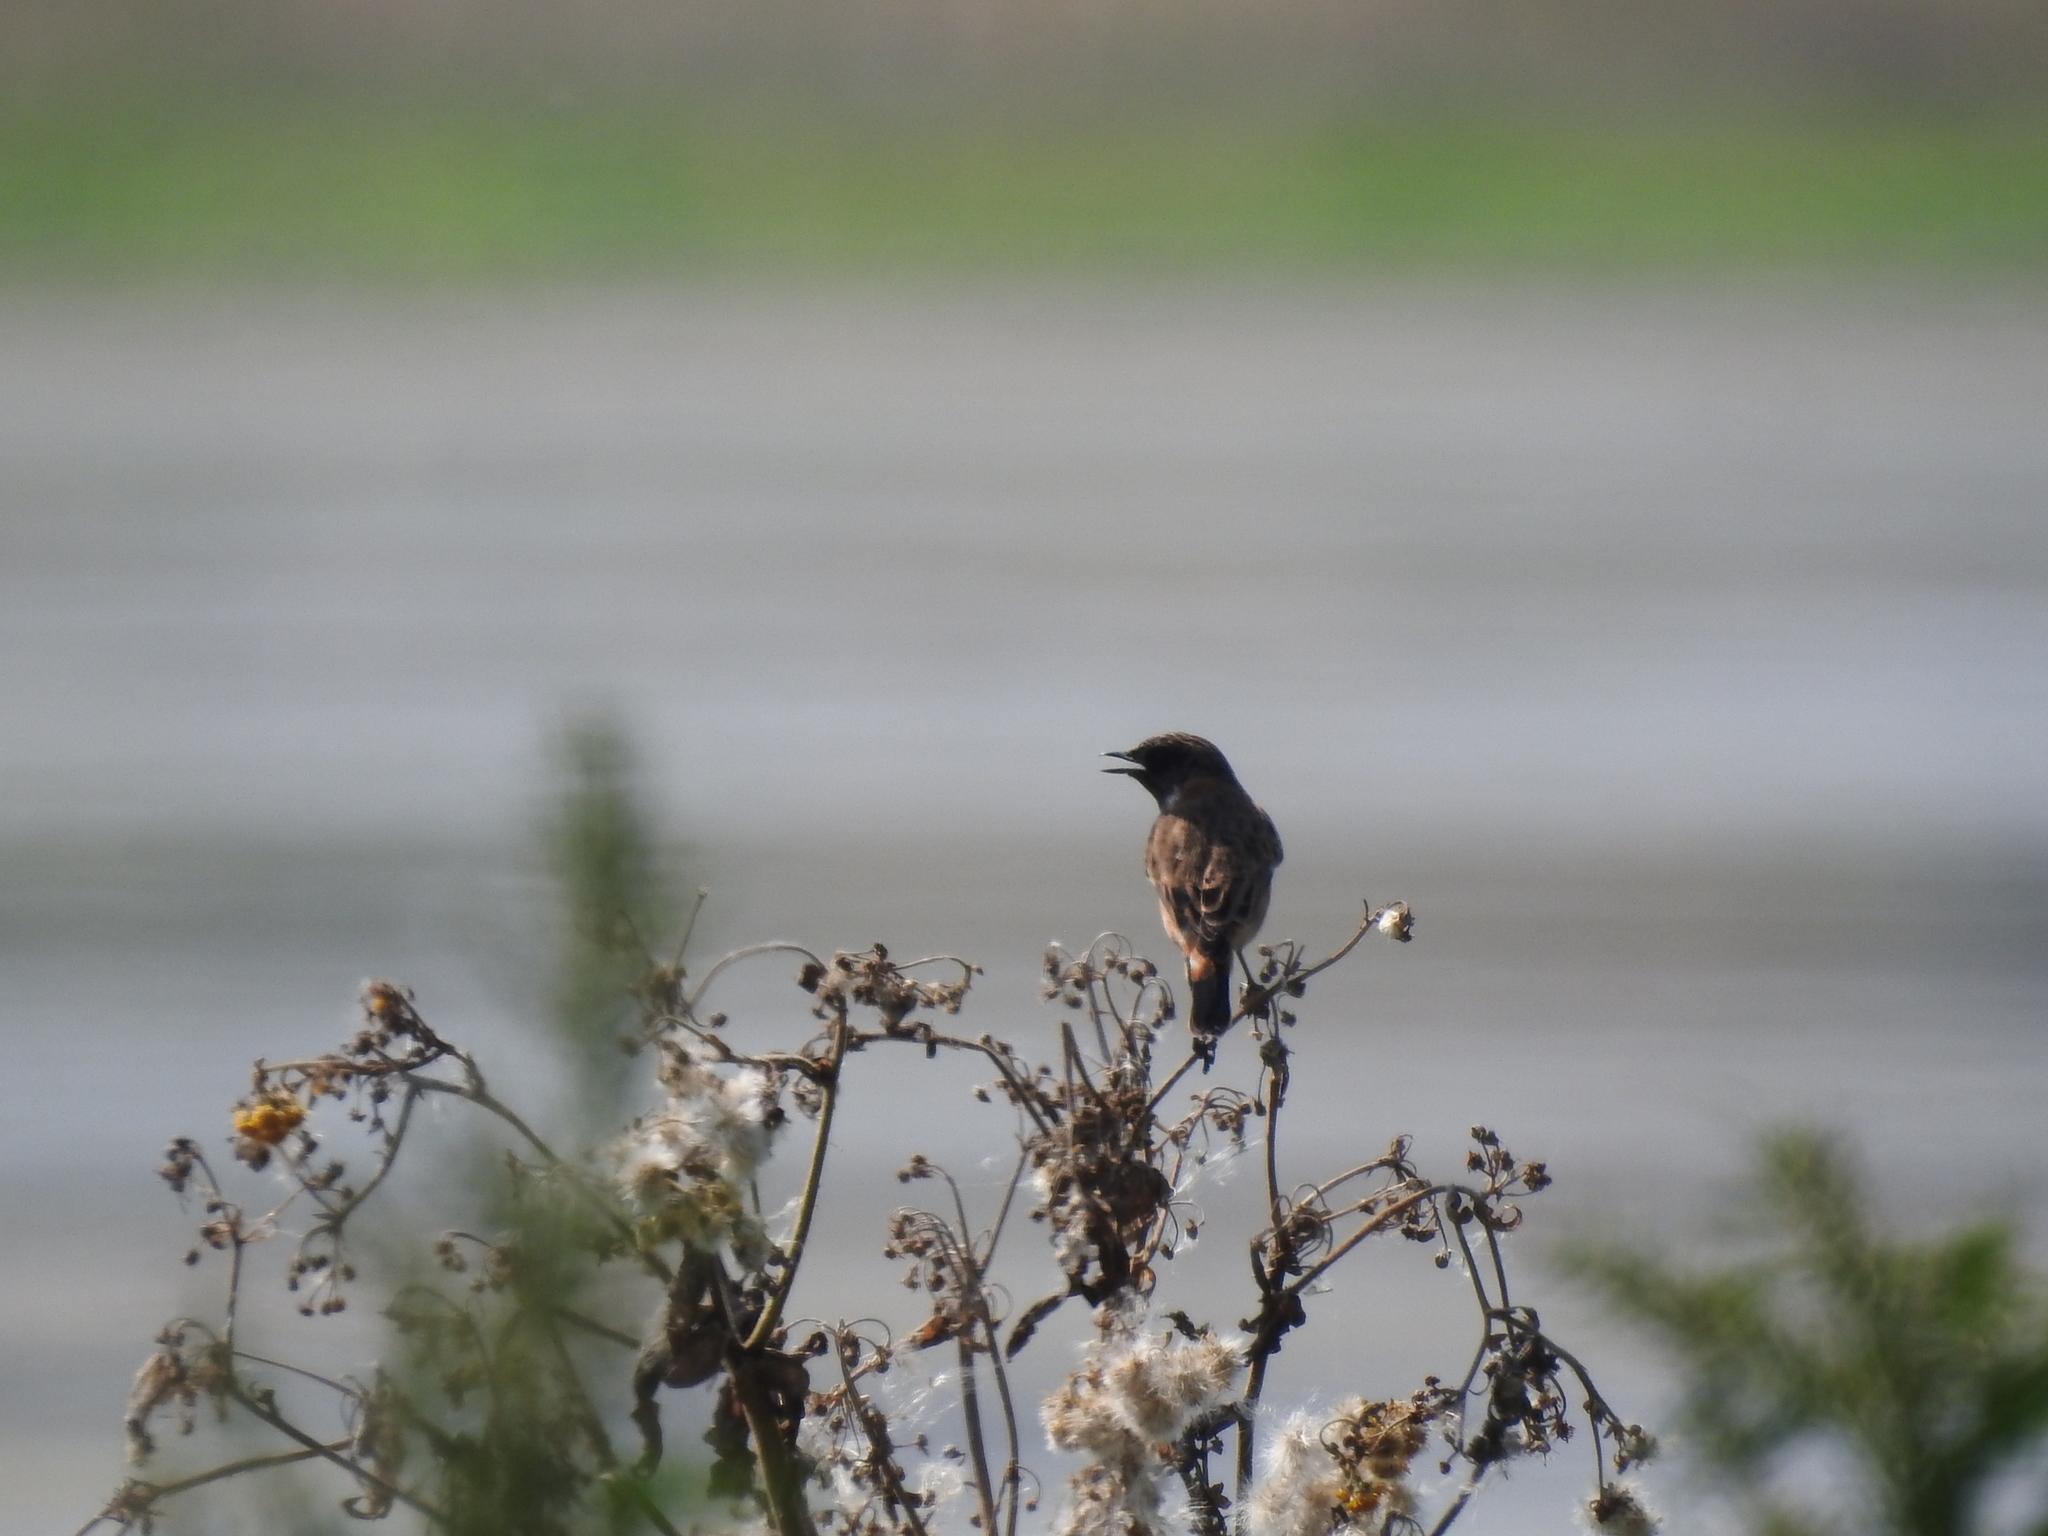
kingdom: Animalia
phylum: Chordata
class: Aves
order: Passeriformes
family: Muscicapidae
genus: Saxicola
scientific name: Saxicola maurus
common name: Siberian stonechat
